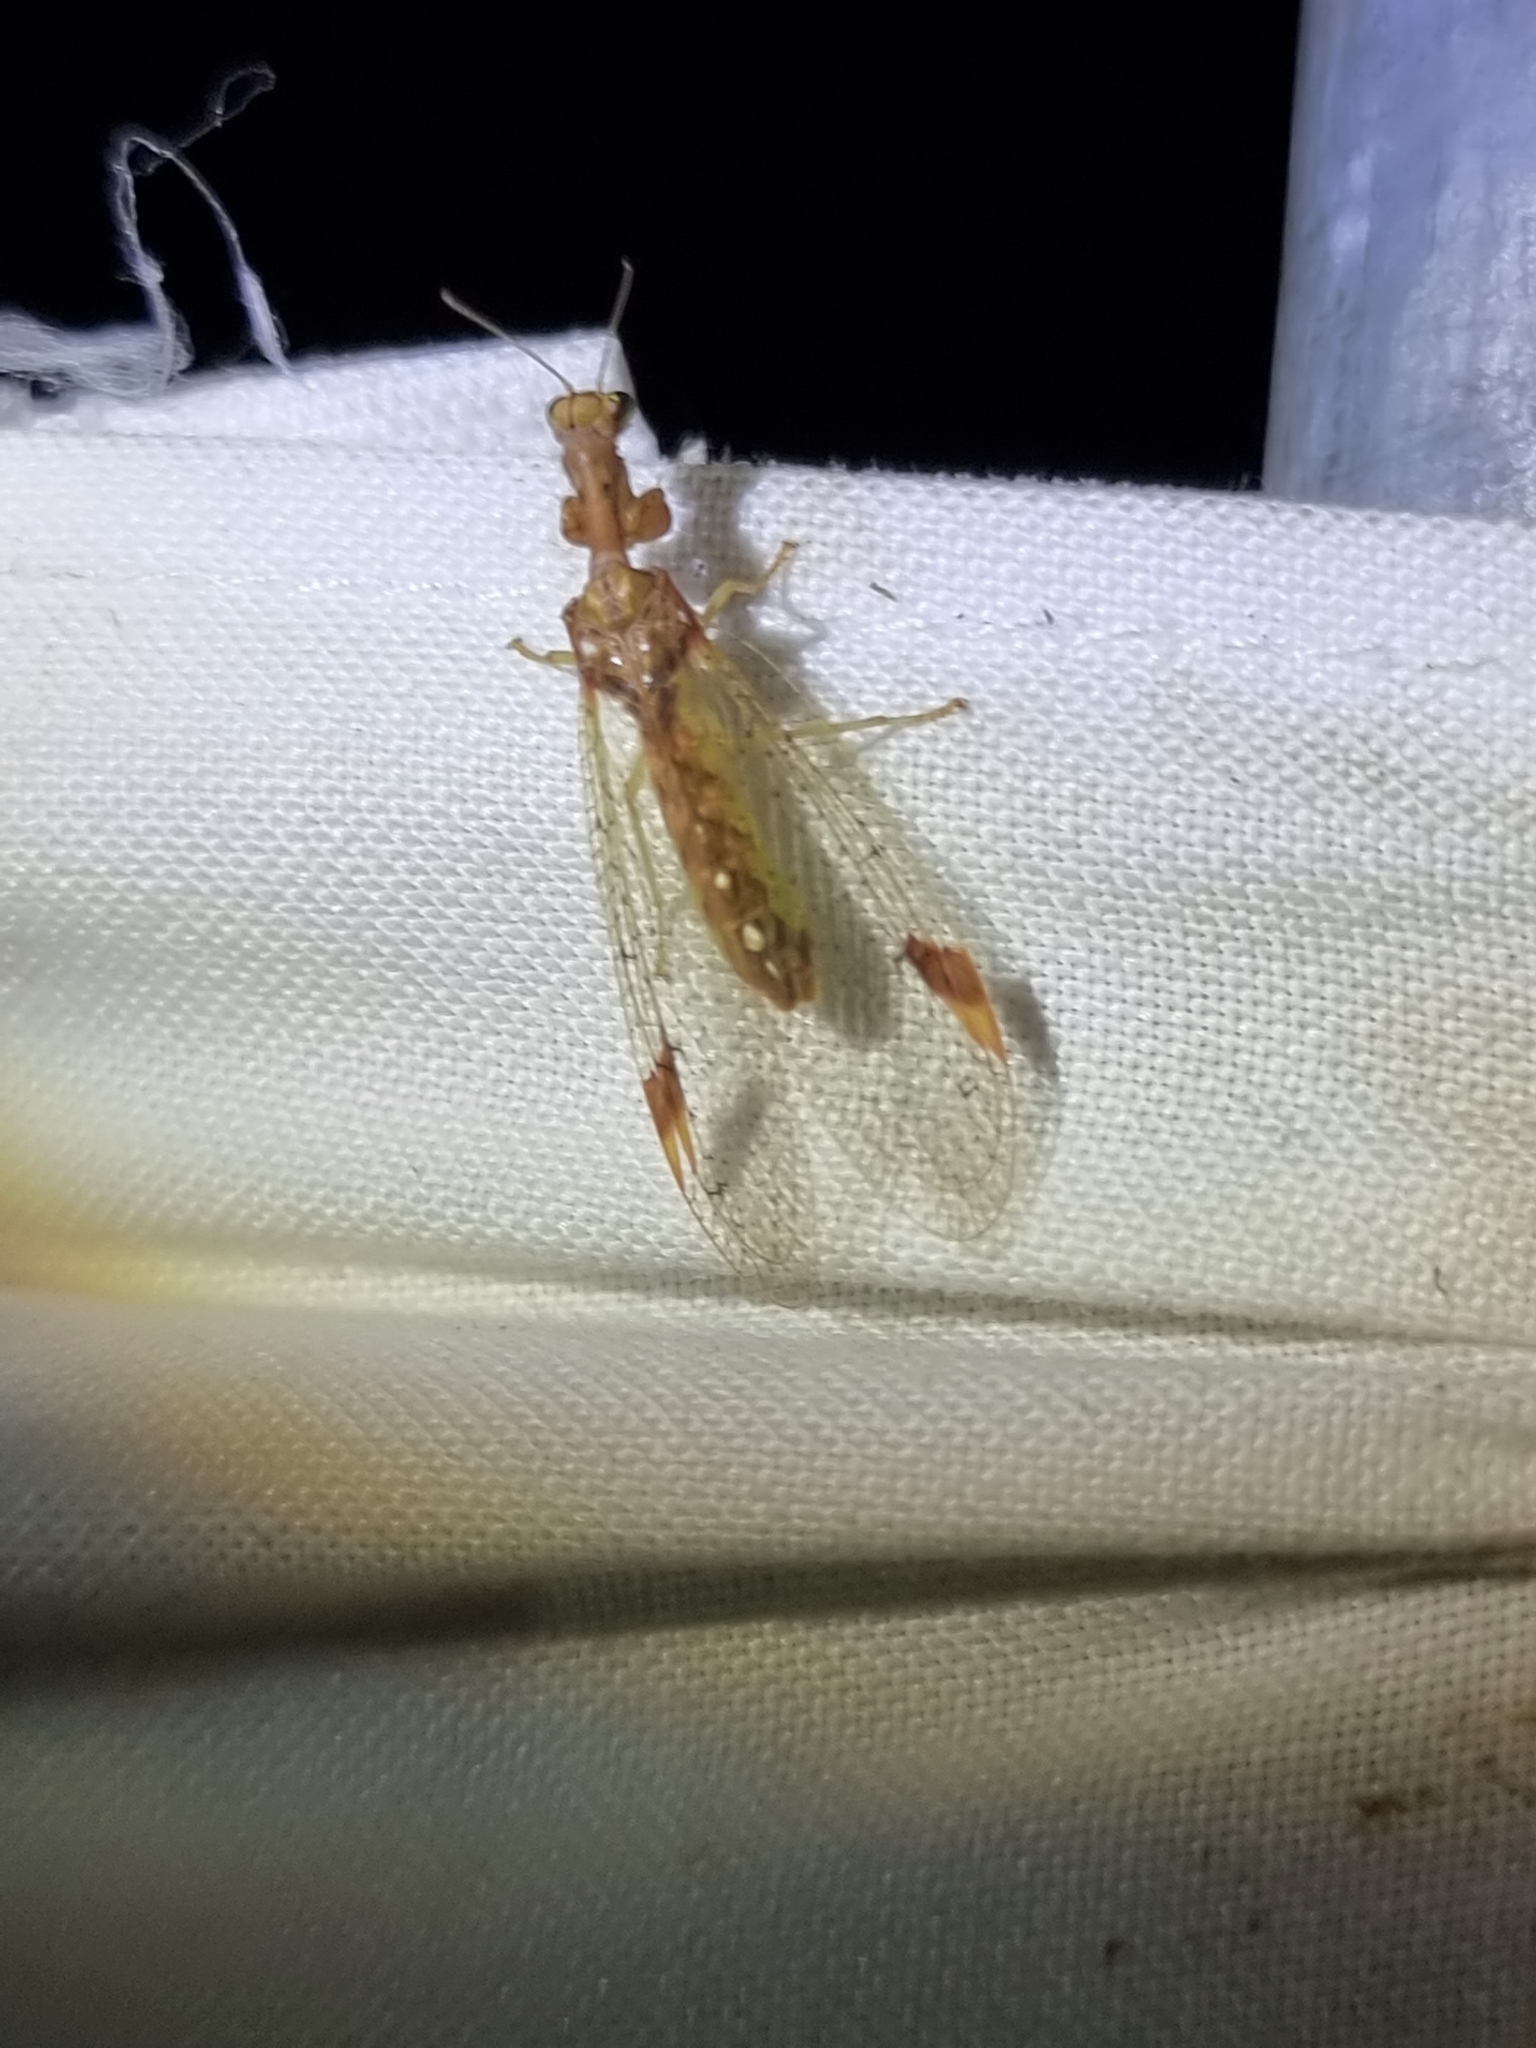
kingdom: Animalia
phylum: Arthropoda
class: Insecta
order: Neuroptera
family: Mantispidae
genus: Ditaxis
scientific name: Ditaxis biseriata
